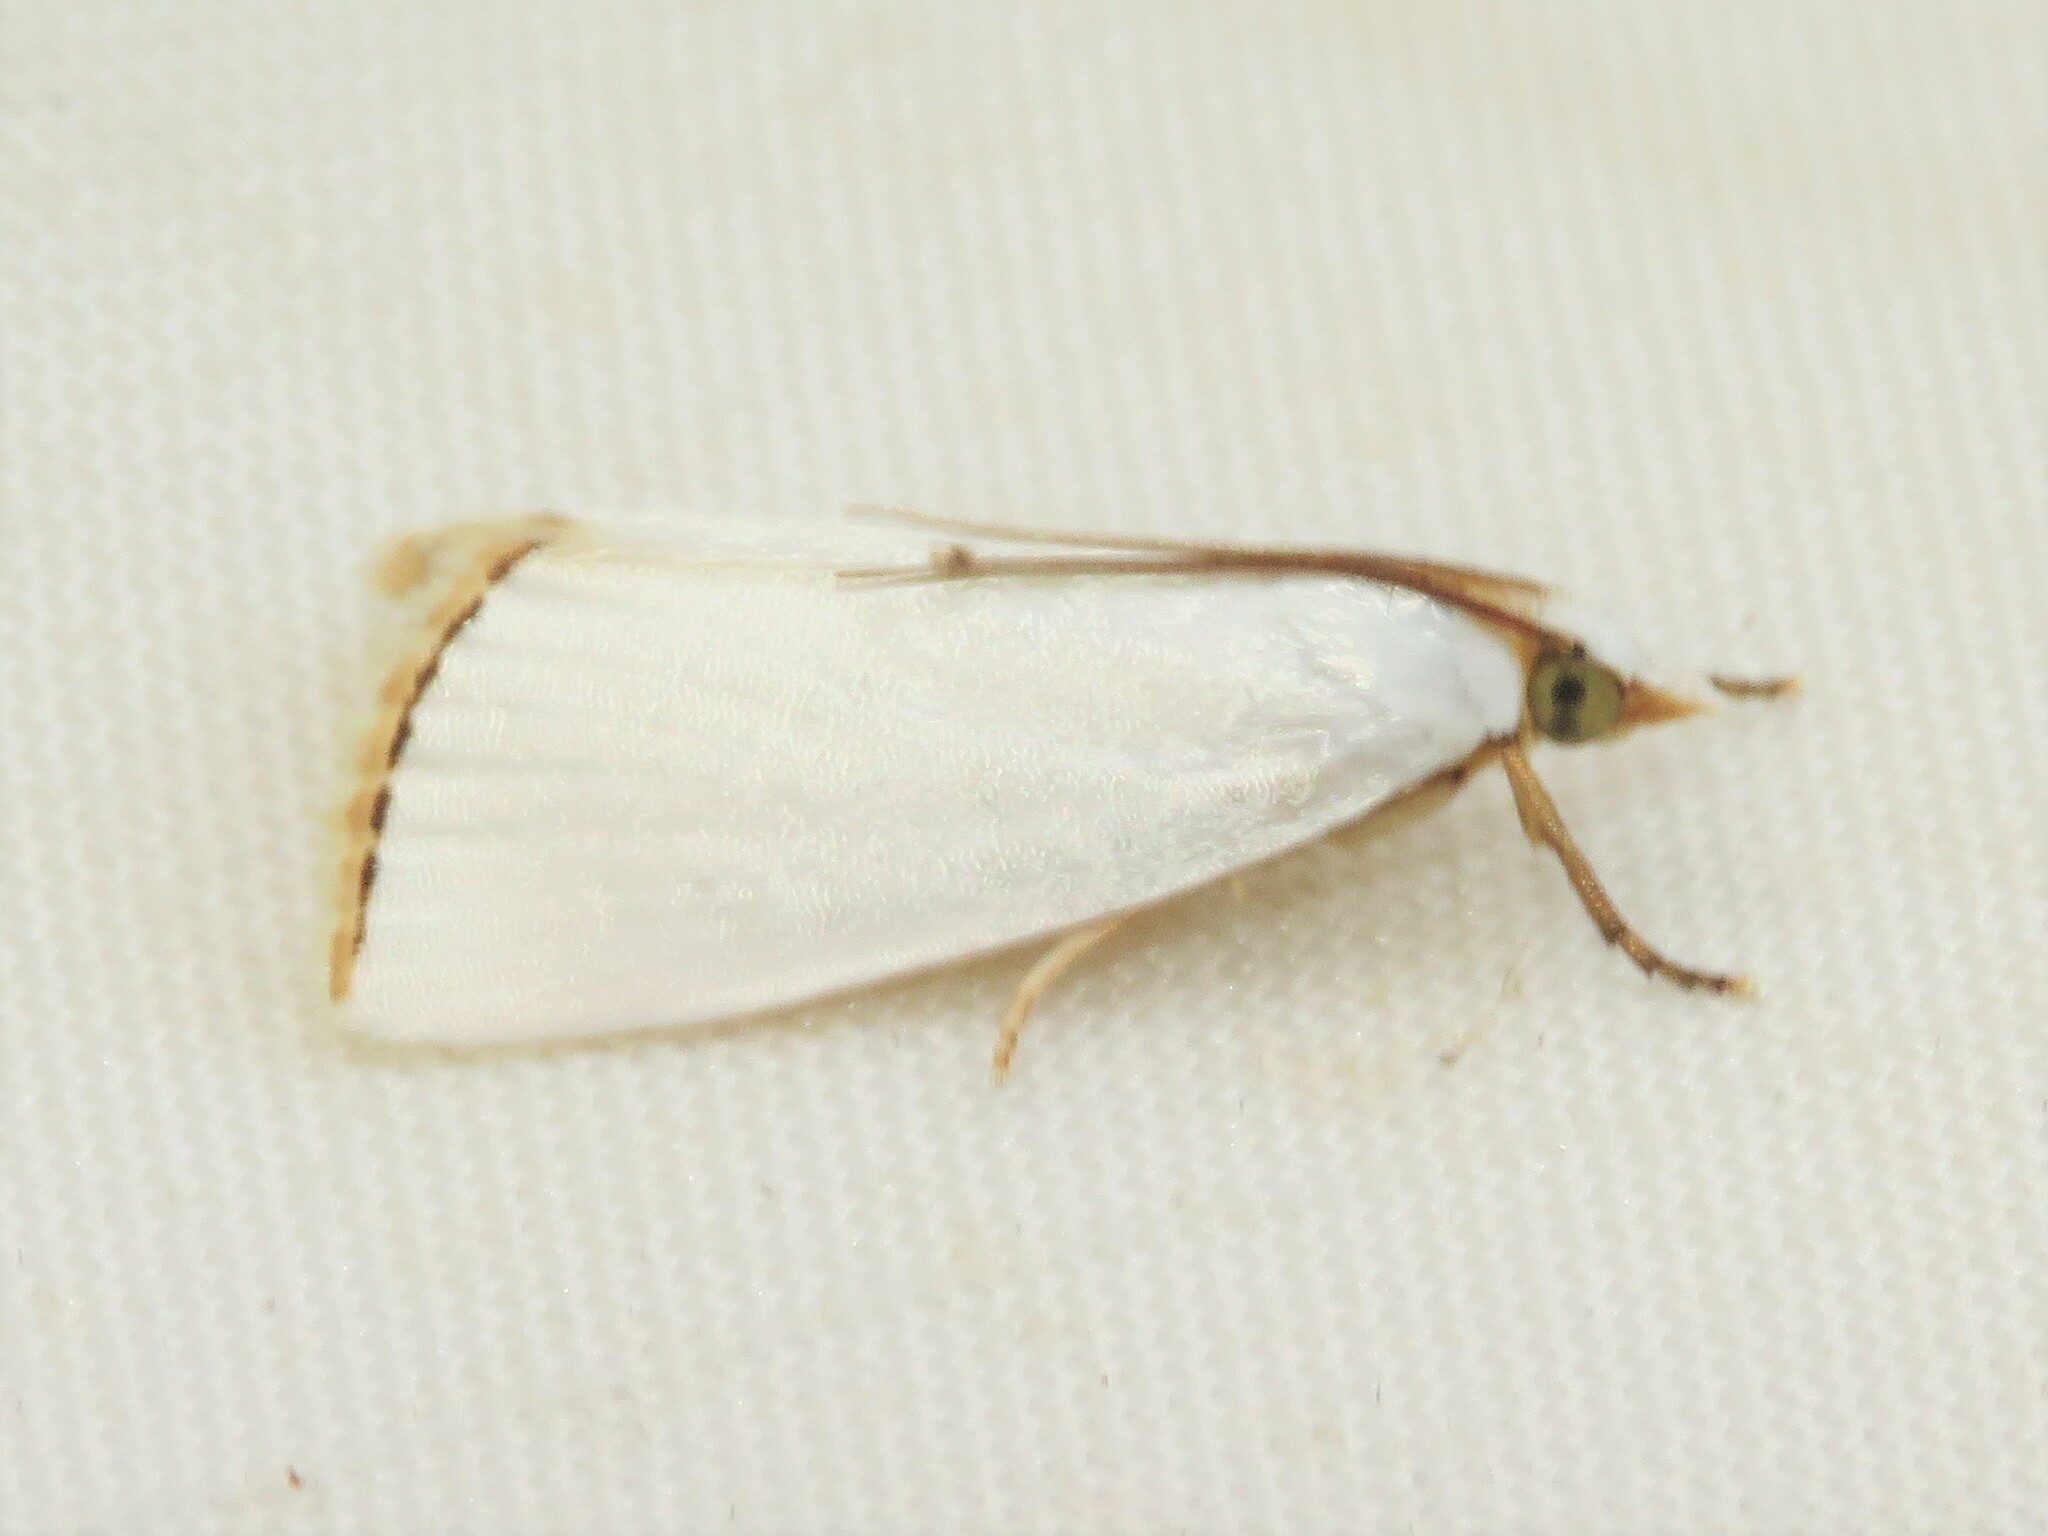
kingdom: Animalia
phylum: Arthropoda
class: Insecta
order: Lepidoptera
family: Crambidae
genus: Argyria
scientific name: Argyria nivalis
